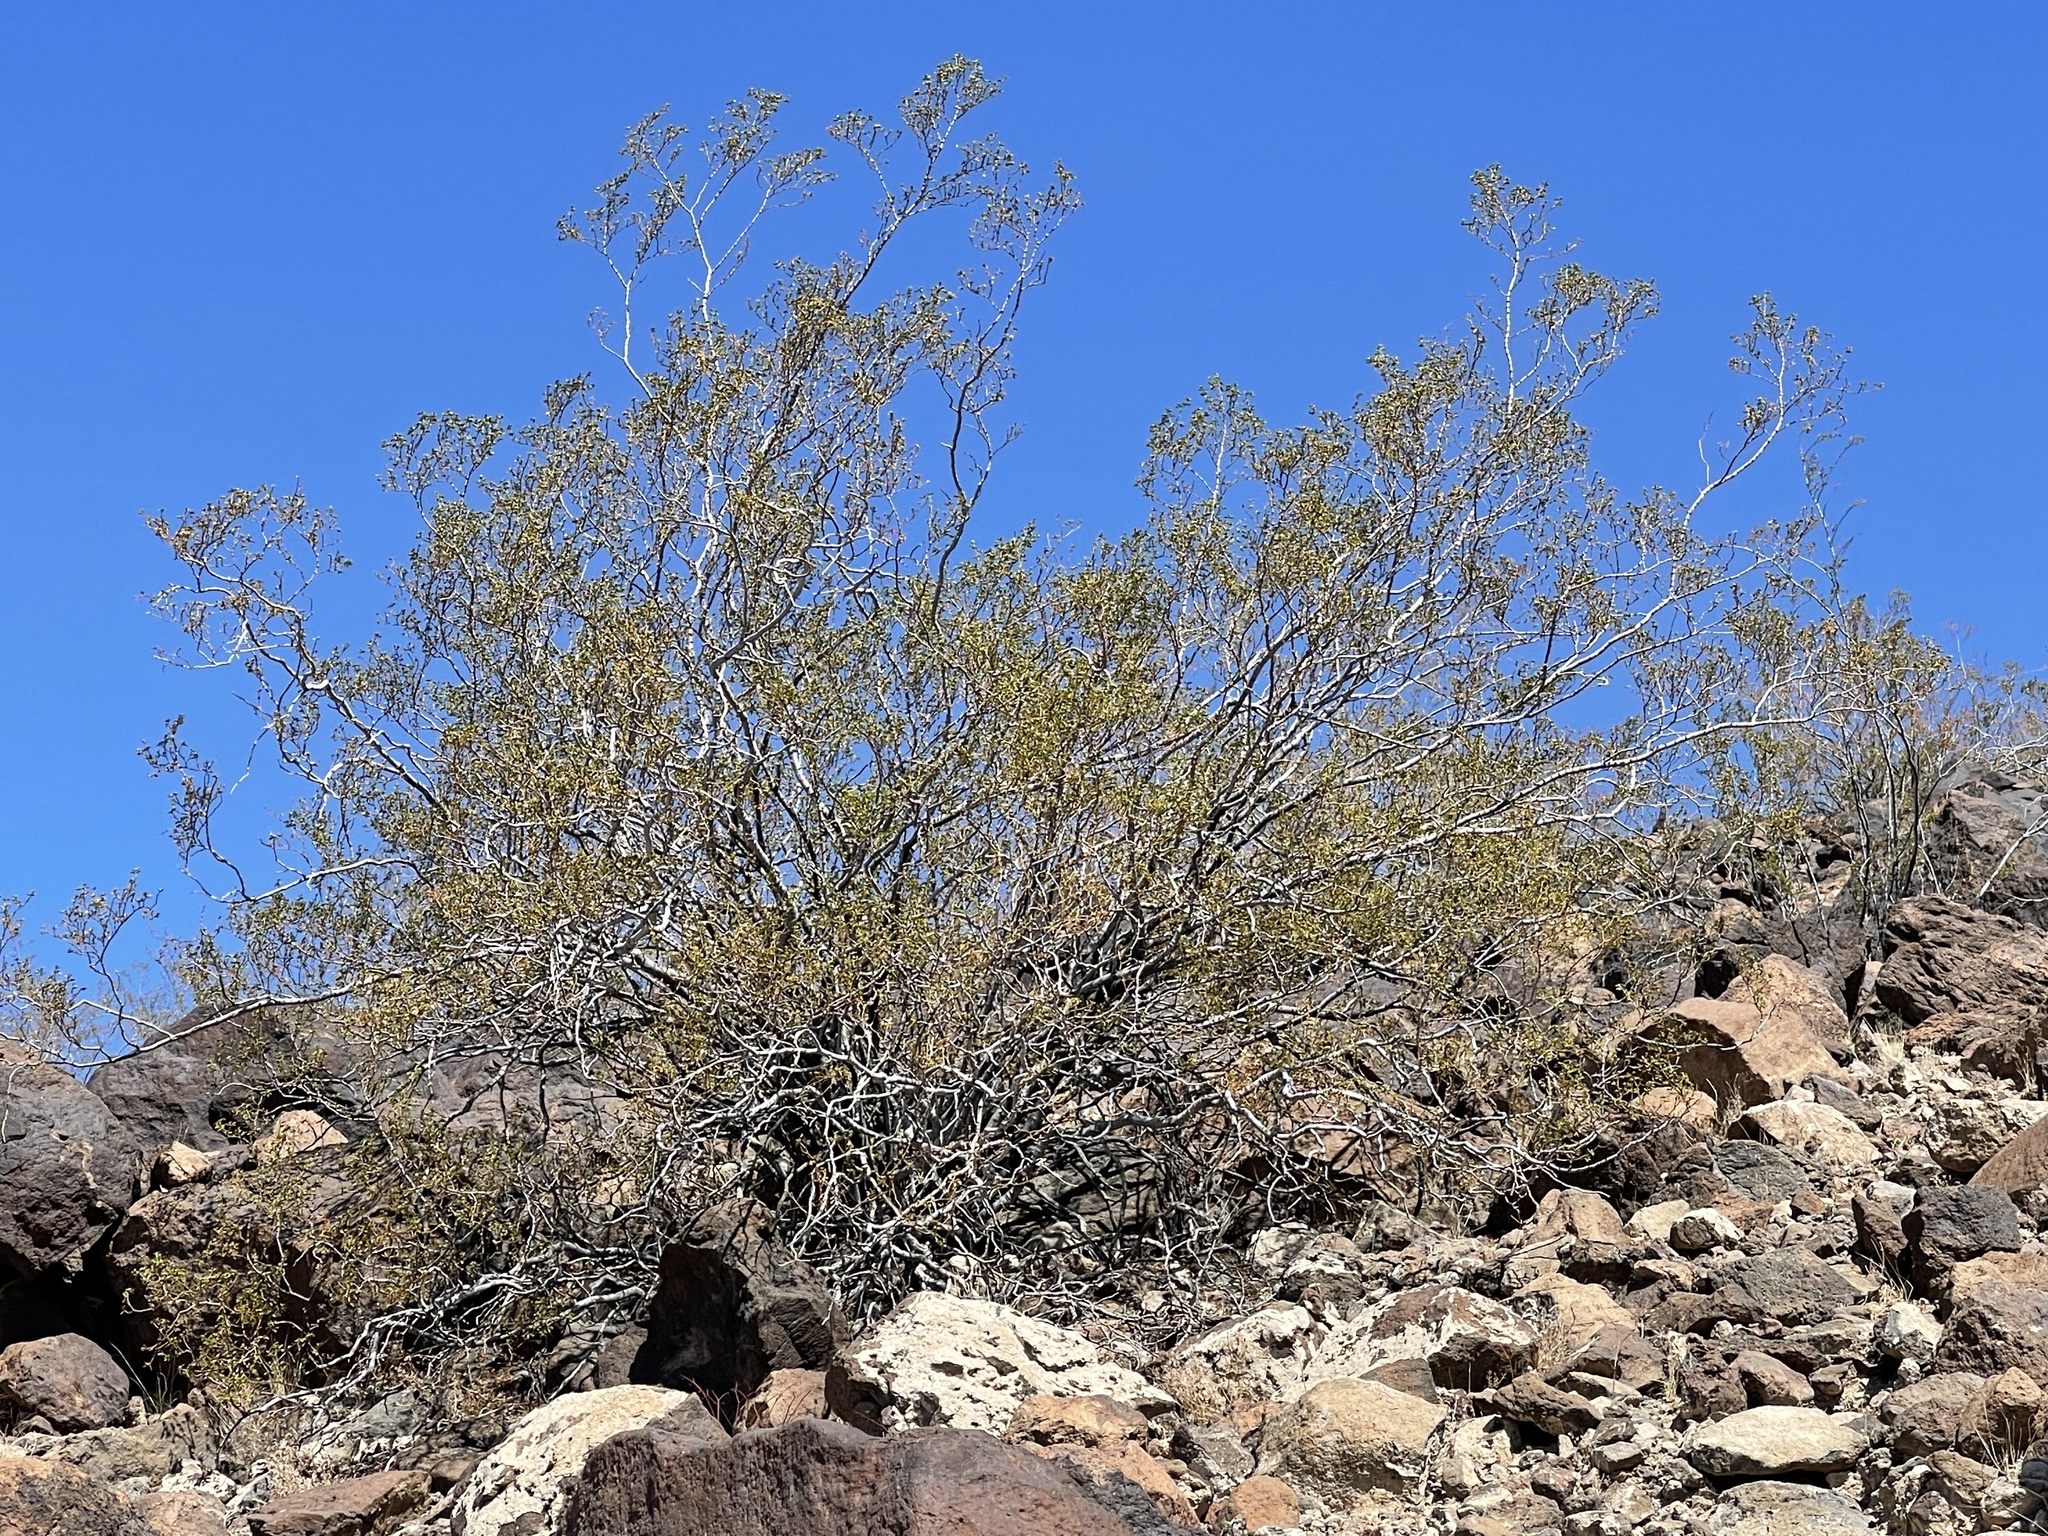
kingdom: Plantae
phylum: Tracheophyta
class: Magnoliopsida
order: Zygophyllales
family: Zygophyllaceae
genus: Larrea
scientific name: Larrea tridentata
